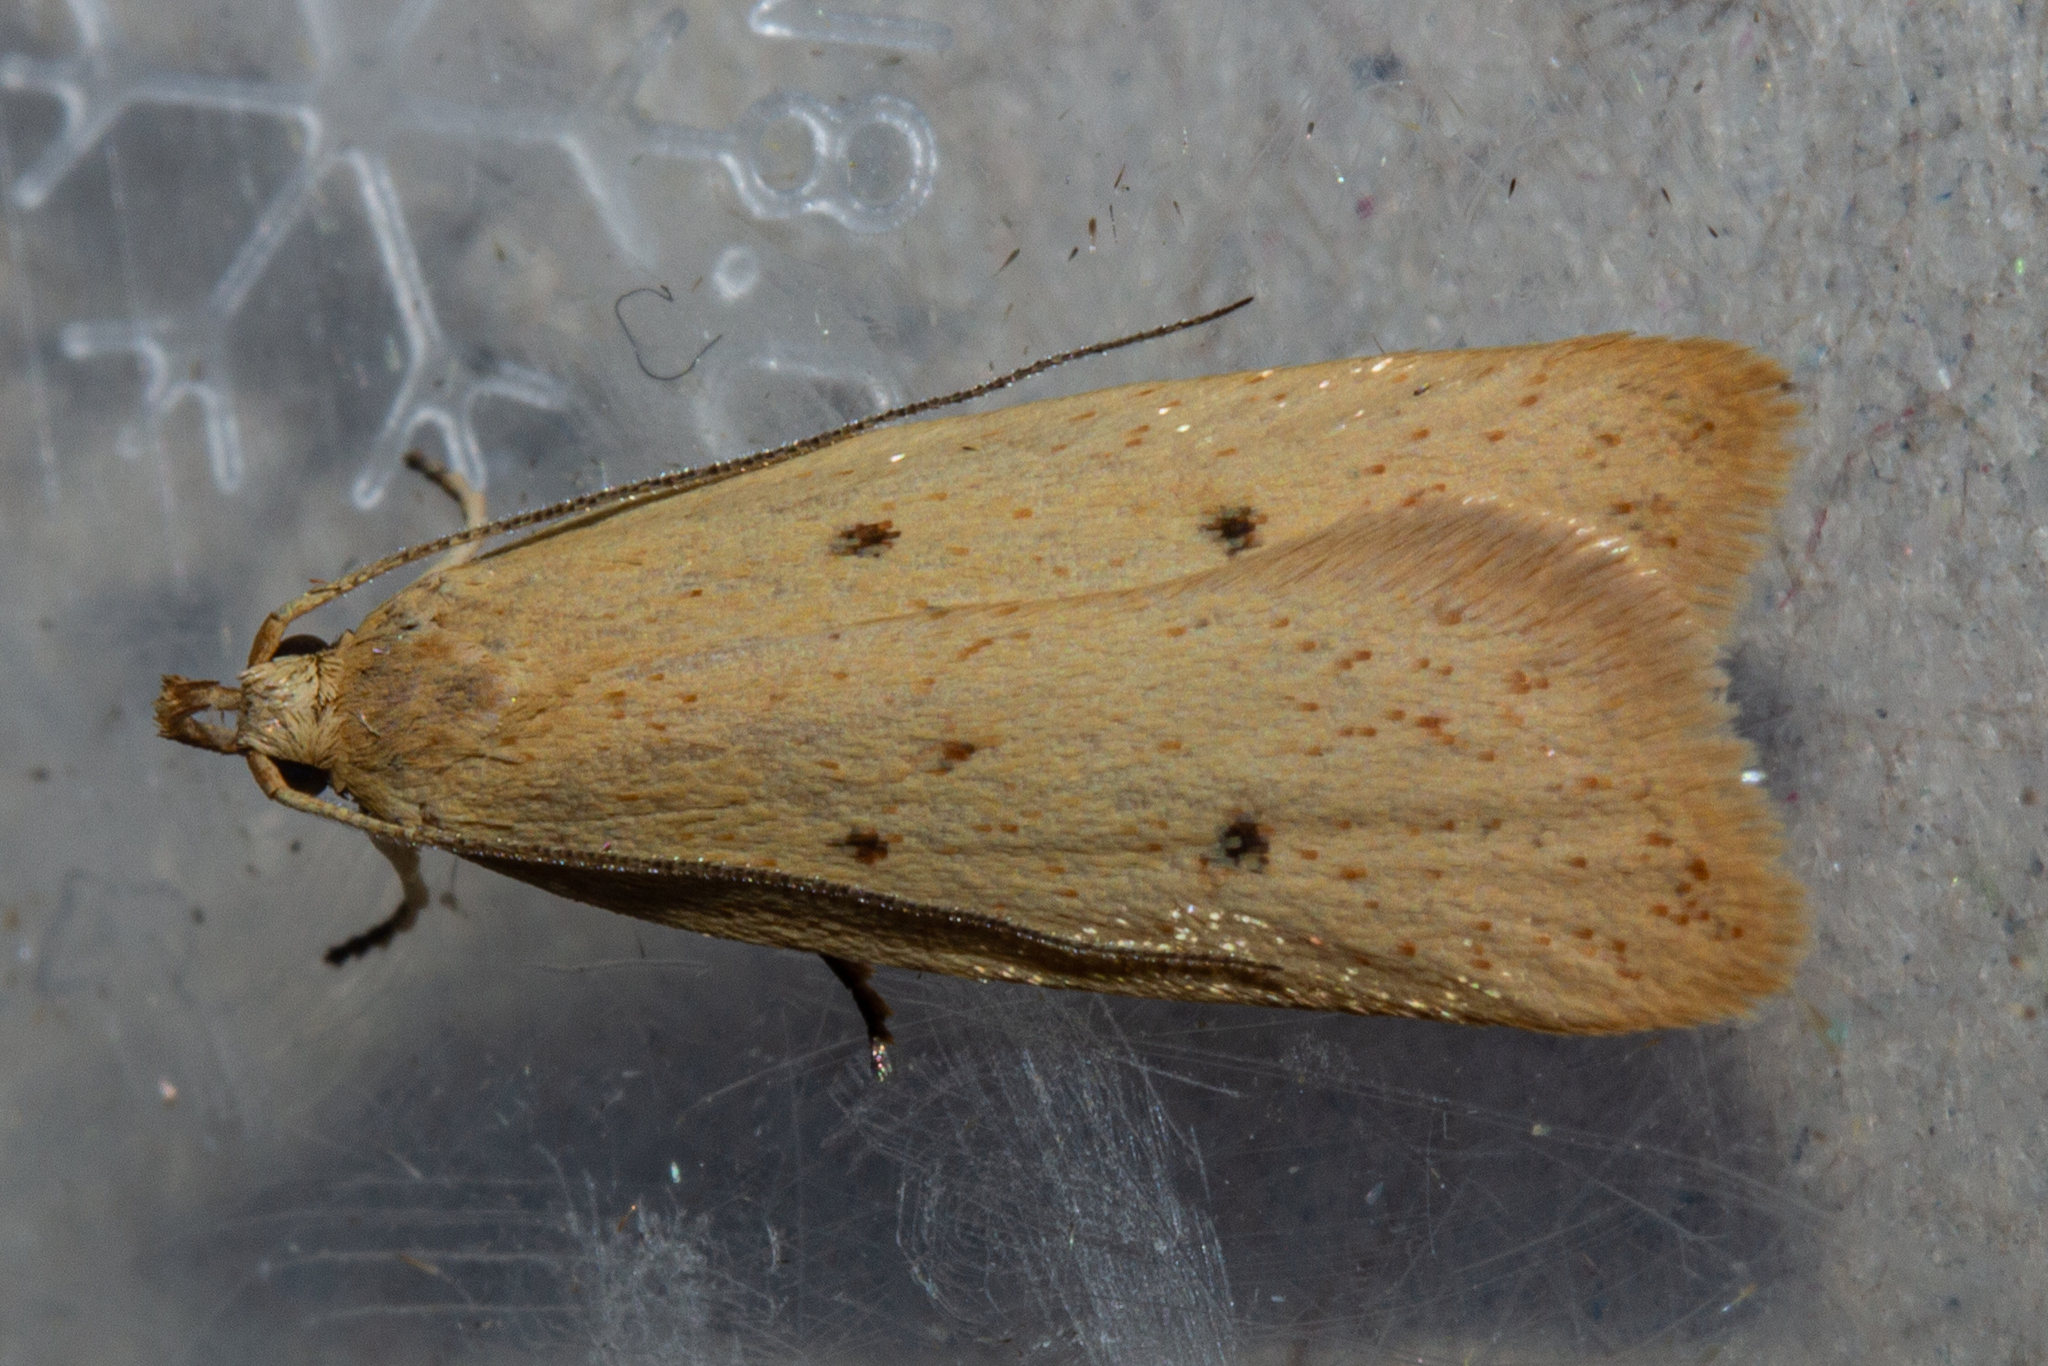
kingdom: Animalia
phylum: Arthropoda
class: Insecta
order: Lepidoptera
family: Oecophoridae
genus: Gymnobathra
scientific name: Gymnobathra sarcoxantha
